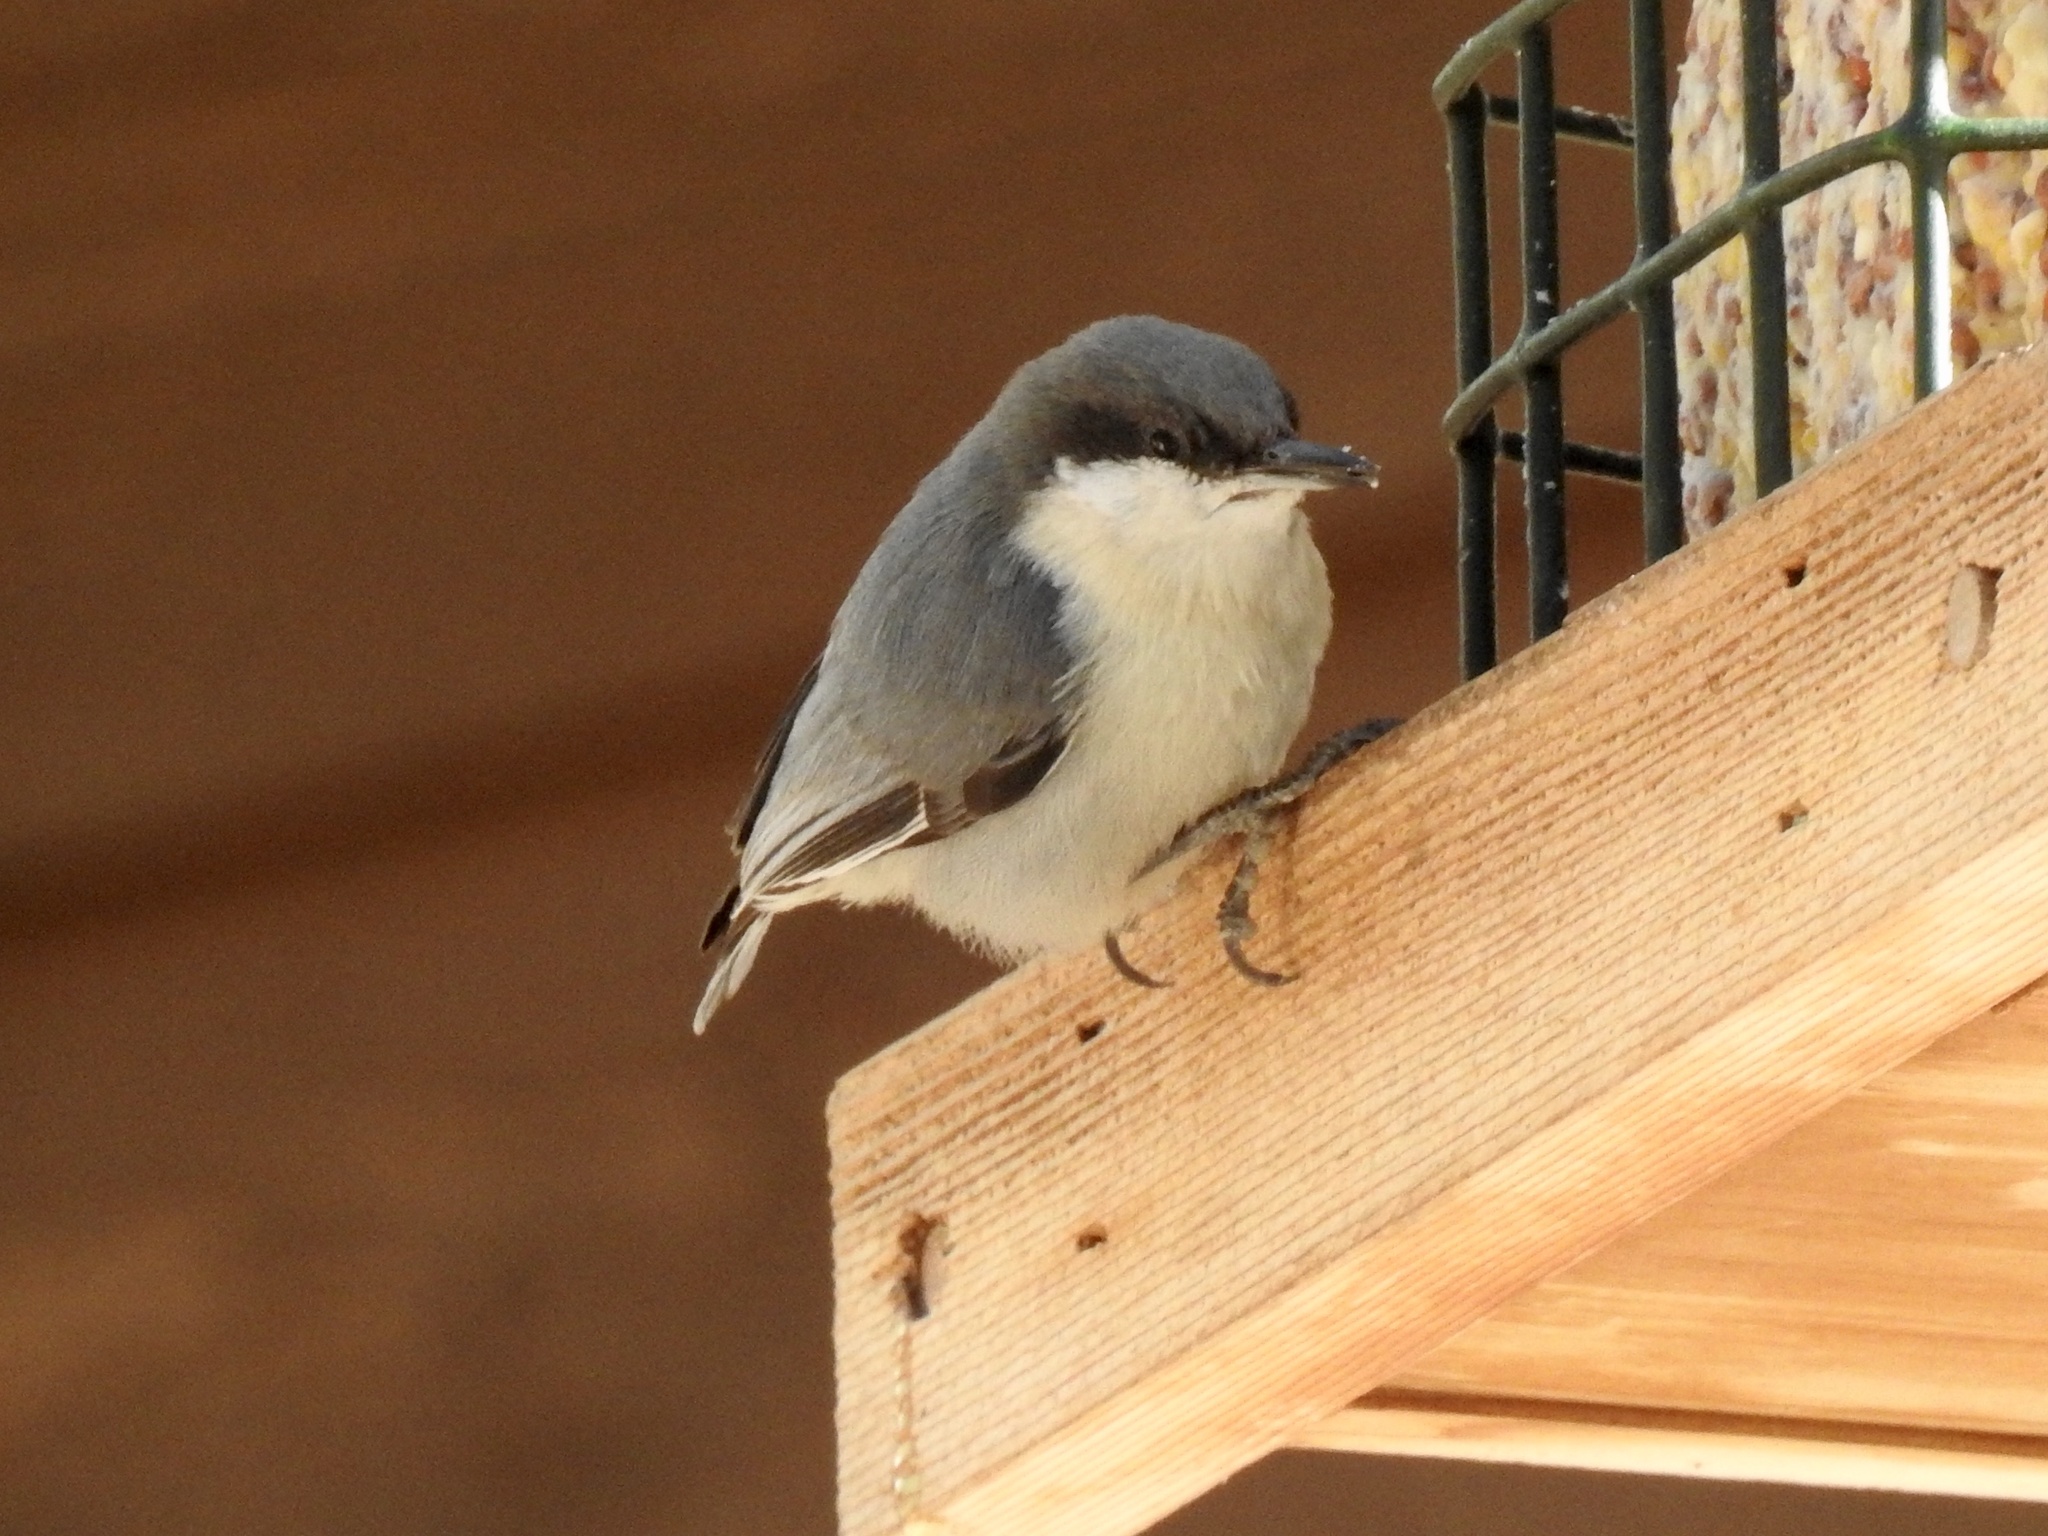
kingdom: Animalia
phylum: Chordata
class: Aves
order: Passeriformes
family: Sittidae
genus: Sitta
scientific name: Sitta pygmaea
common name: Pygmy nuthatch
